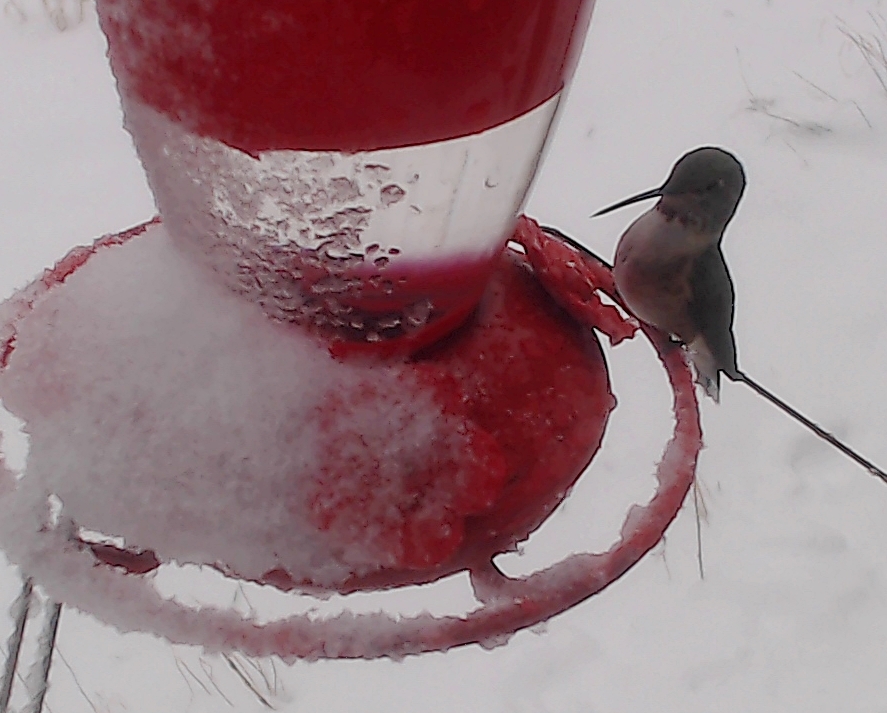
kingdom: Animalia
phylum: Chordata
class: Aves
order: Apodiformes
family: Trochilidae
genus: Selasphorus
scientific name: Selasphorus platycercus
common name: Broad-tailed hummingbird
